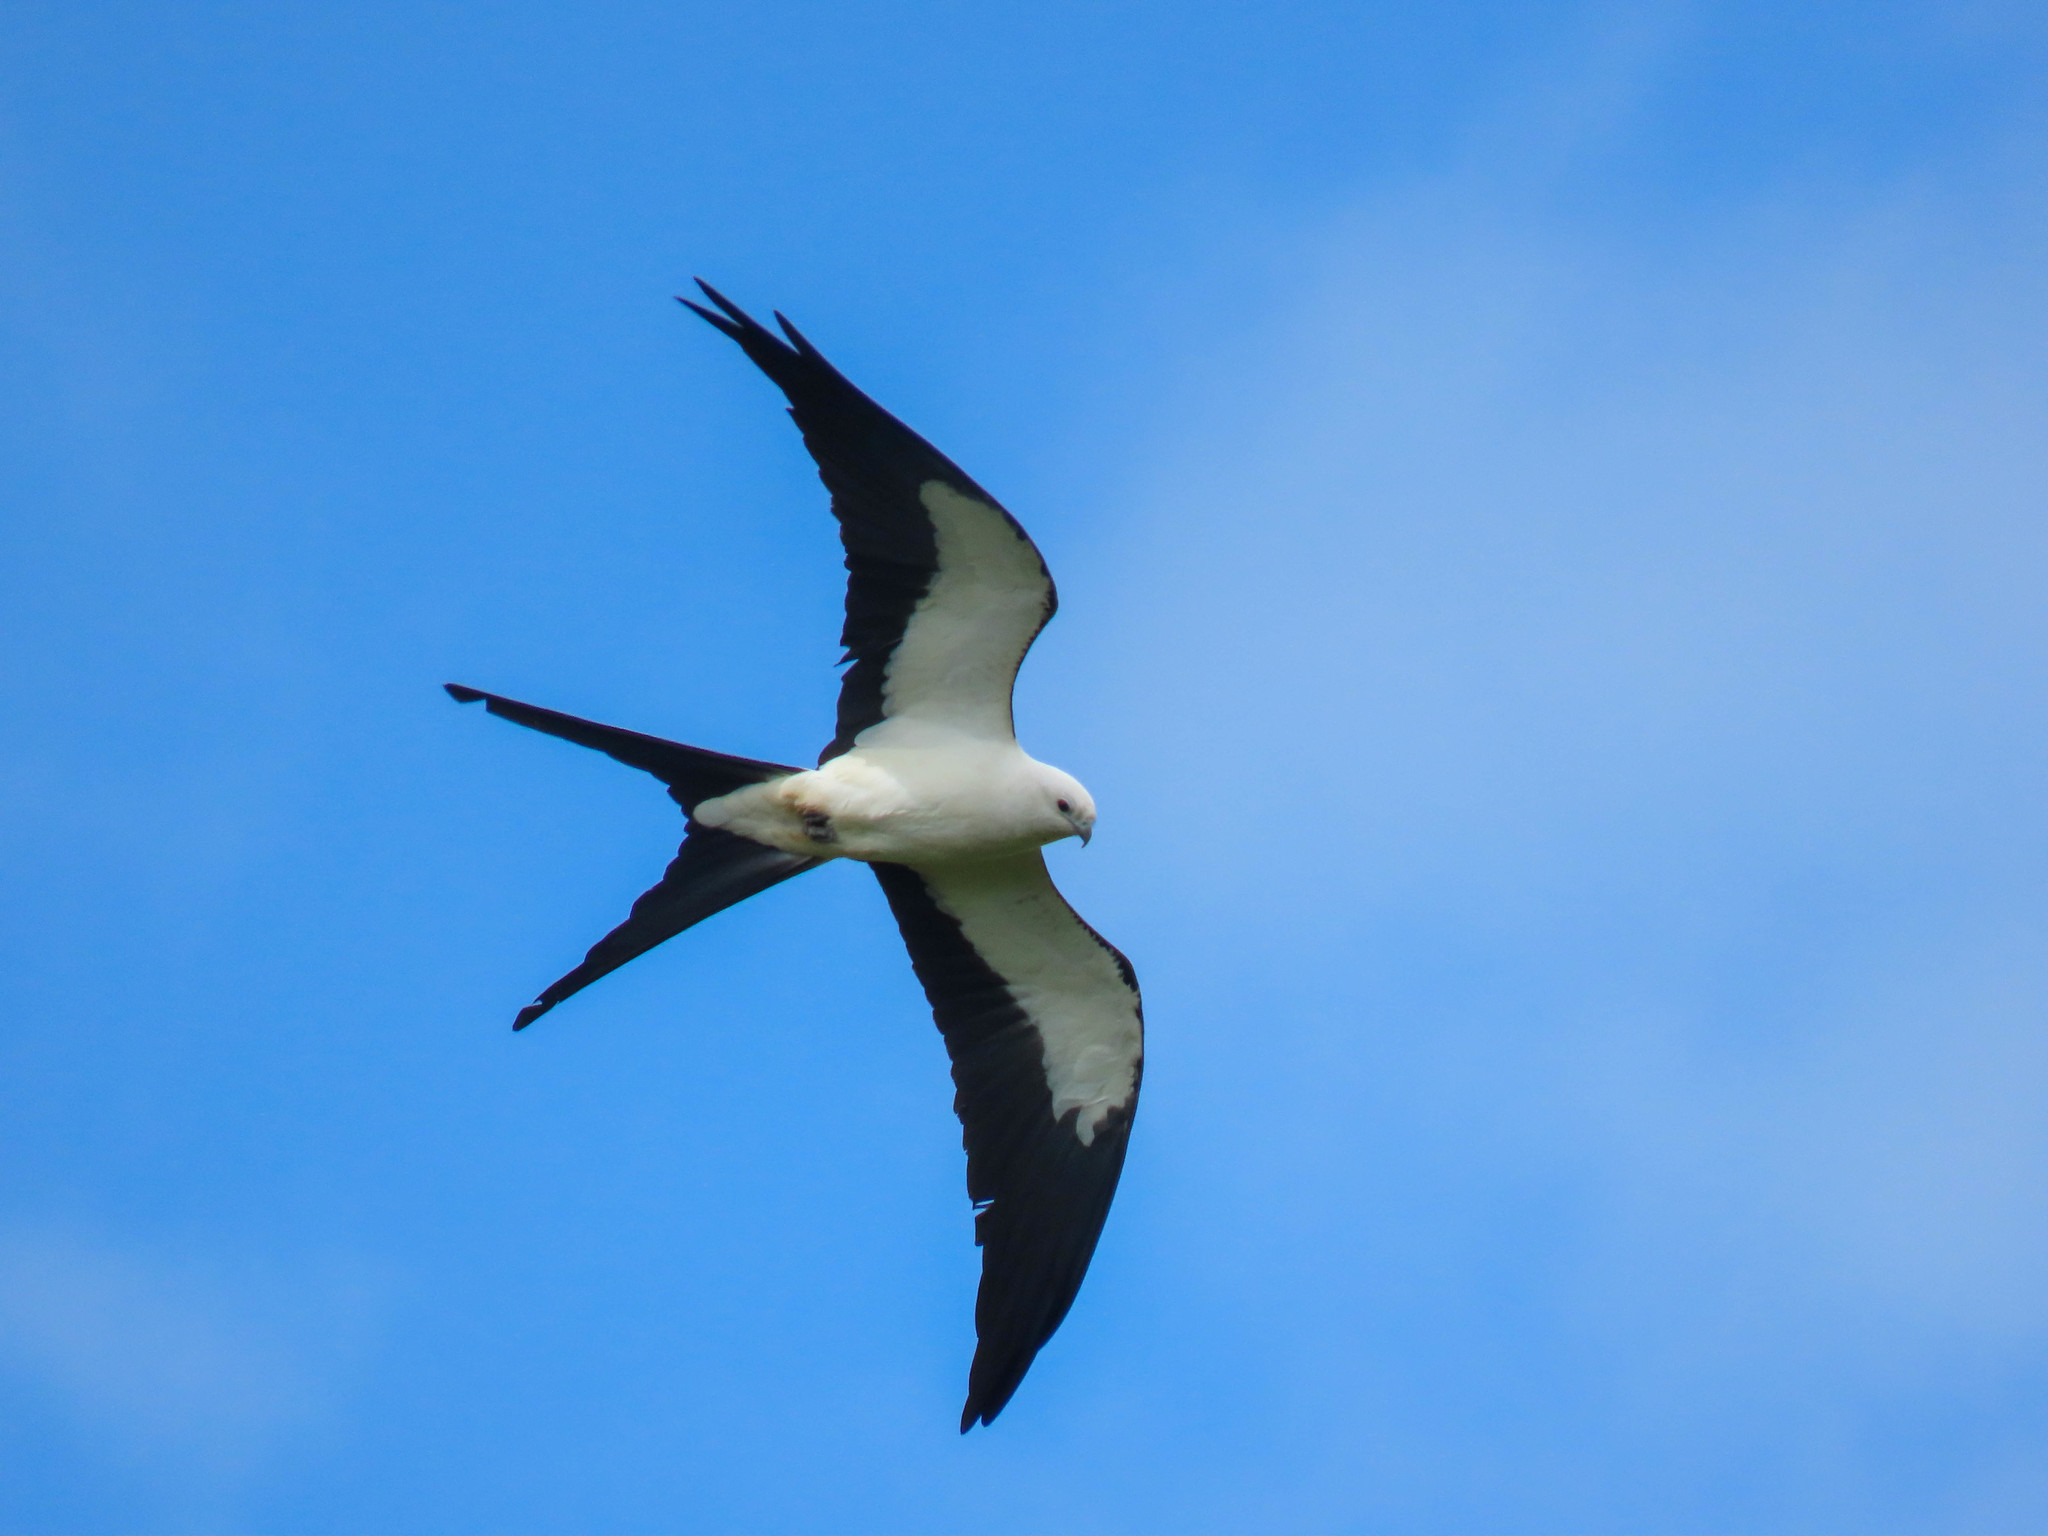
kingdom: Animalia
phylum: Chordata
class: Aves
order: Accipitriformes
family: Accipitridae
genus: Elanoides
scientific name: Elanoides forficatus
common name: Swallow-tailed kite
